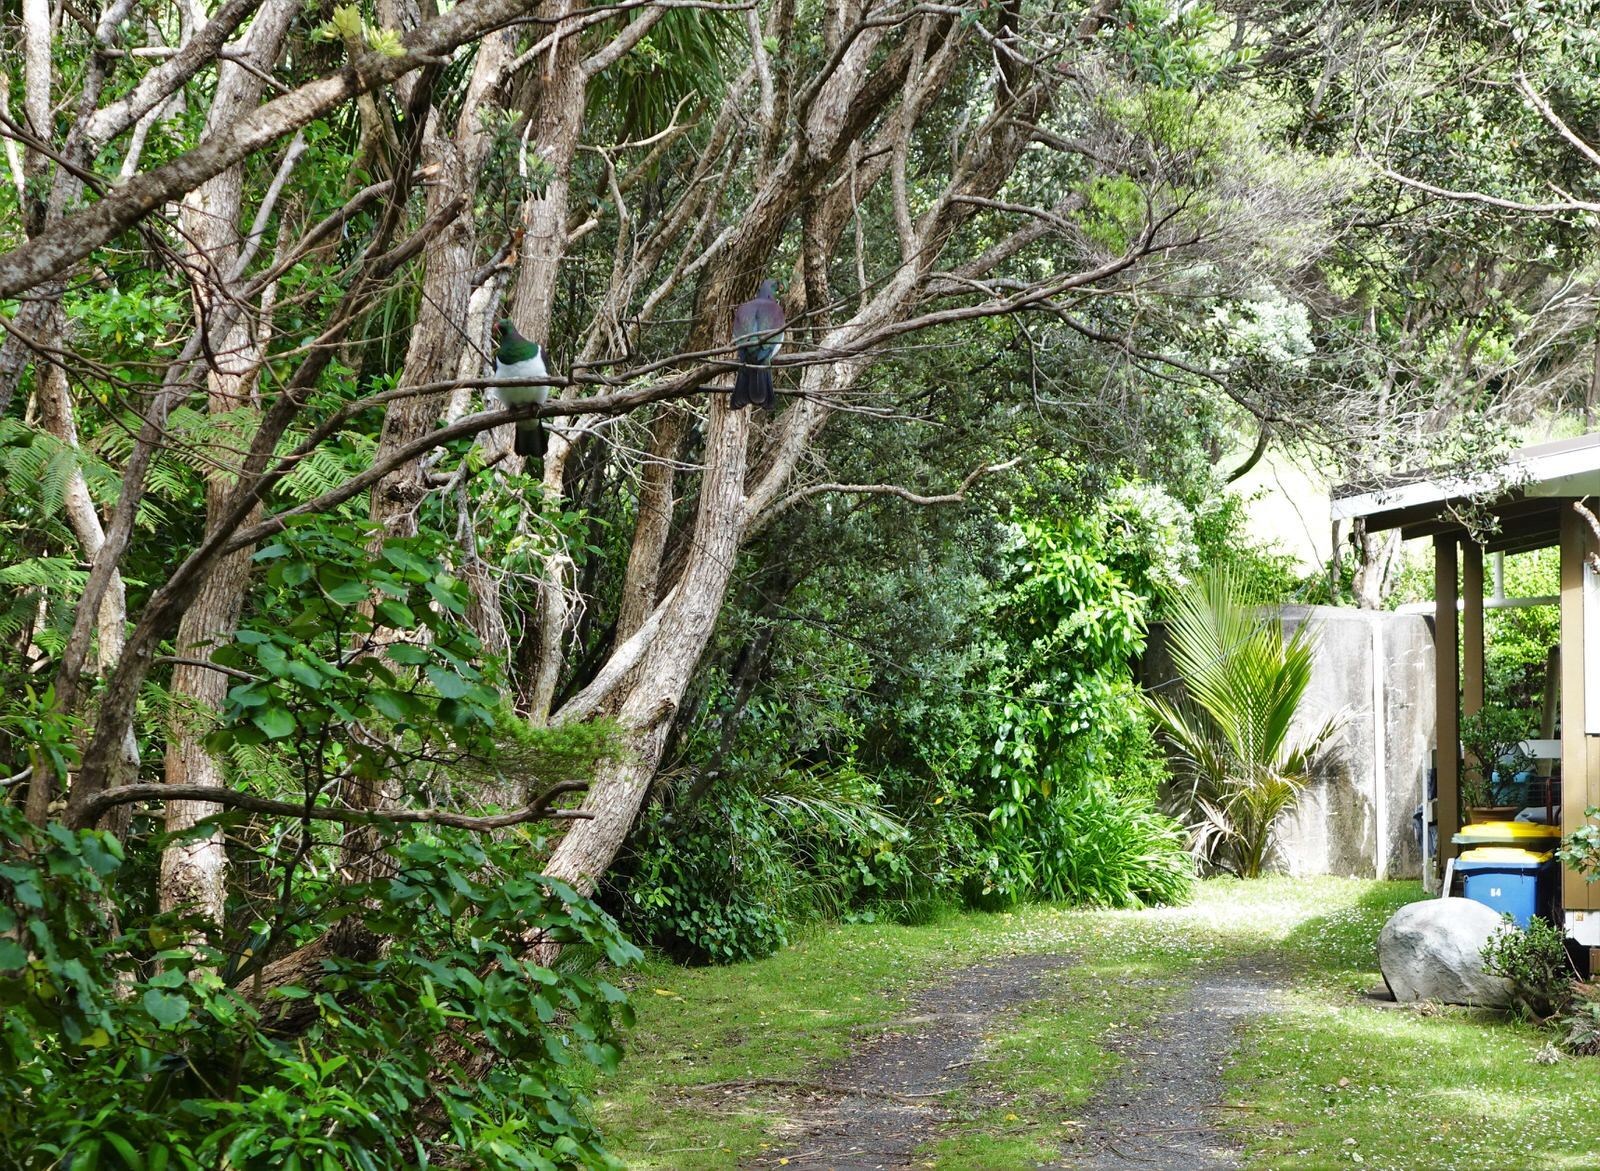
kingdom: Animalia
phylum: Chordata
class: Aves
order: Columbiformes
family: Columbidae
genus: Hemiphaga
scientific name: Hemiphaga novaeseelandiae
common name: New zealand pigeon
